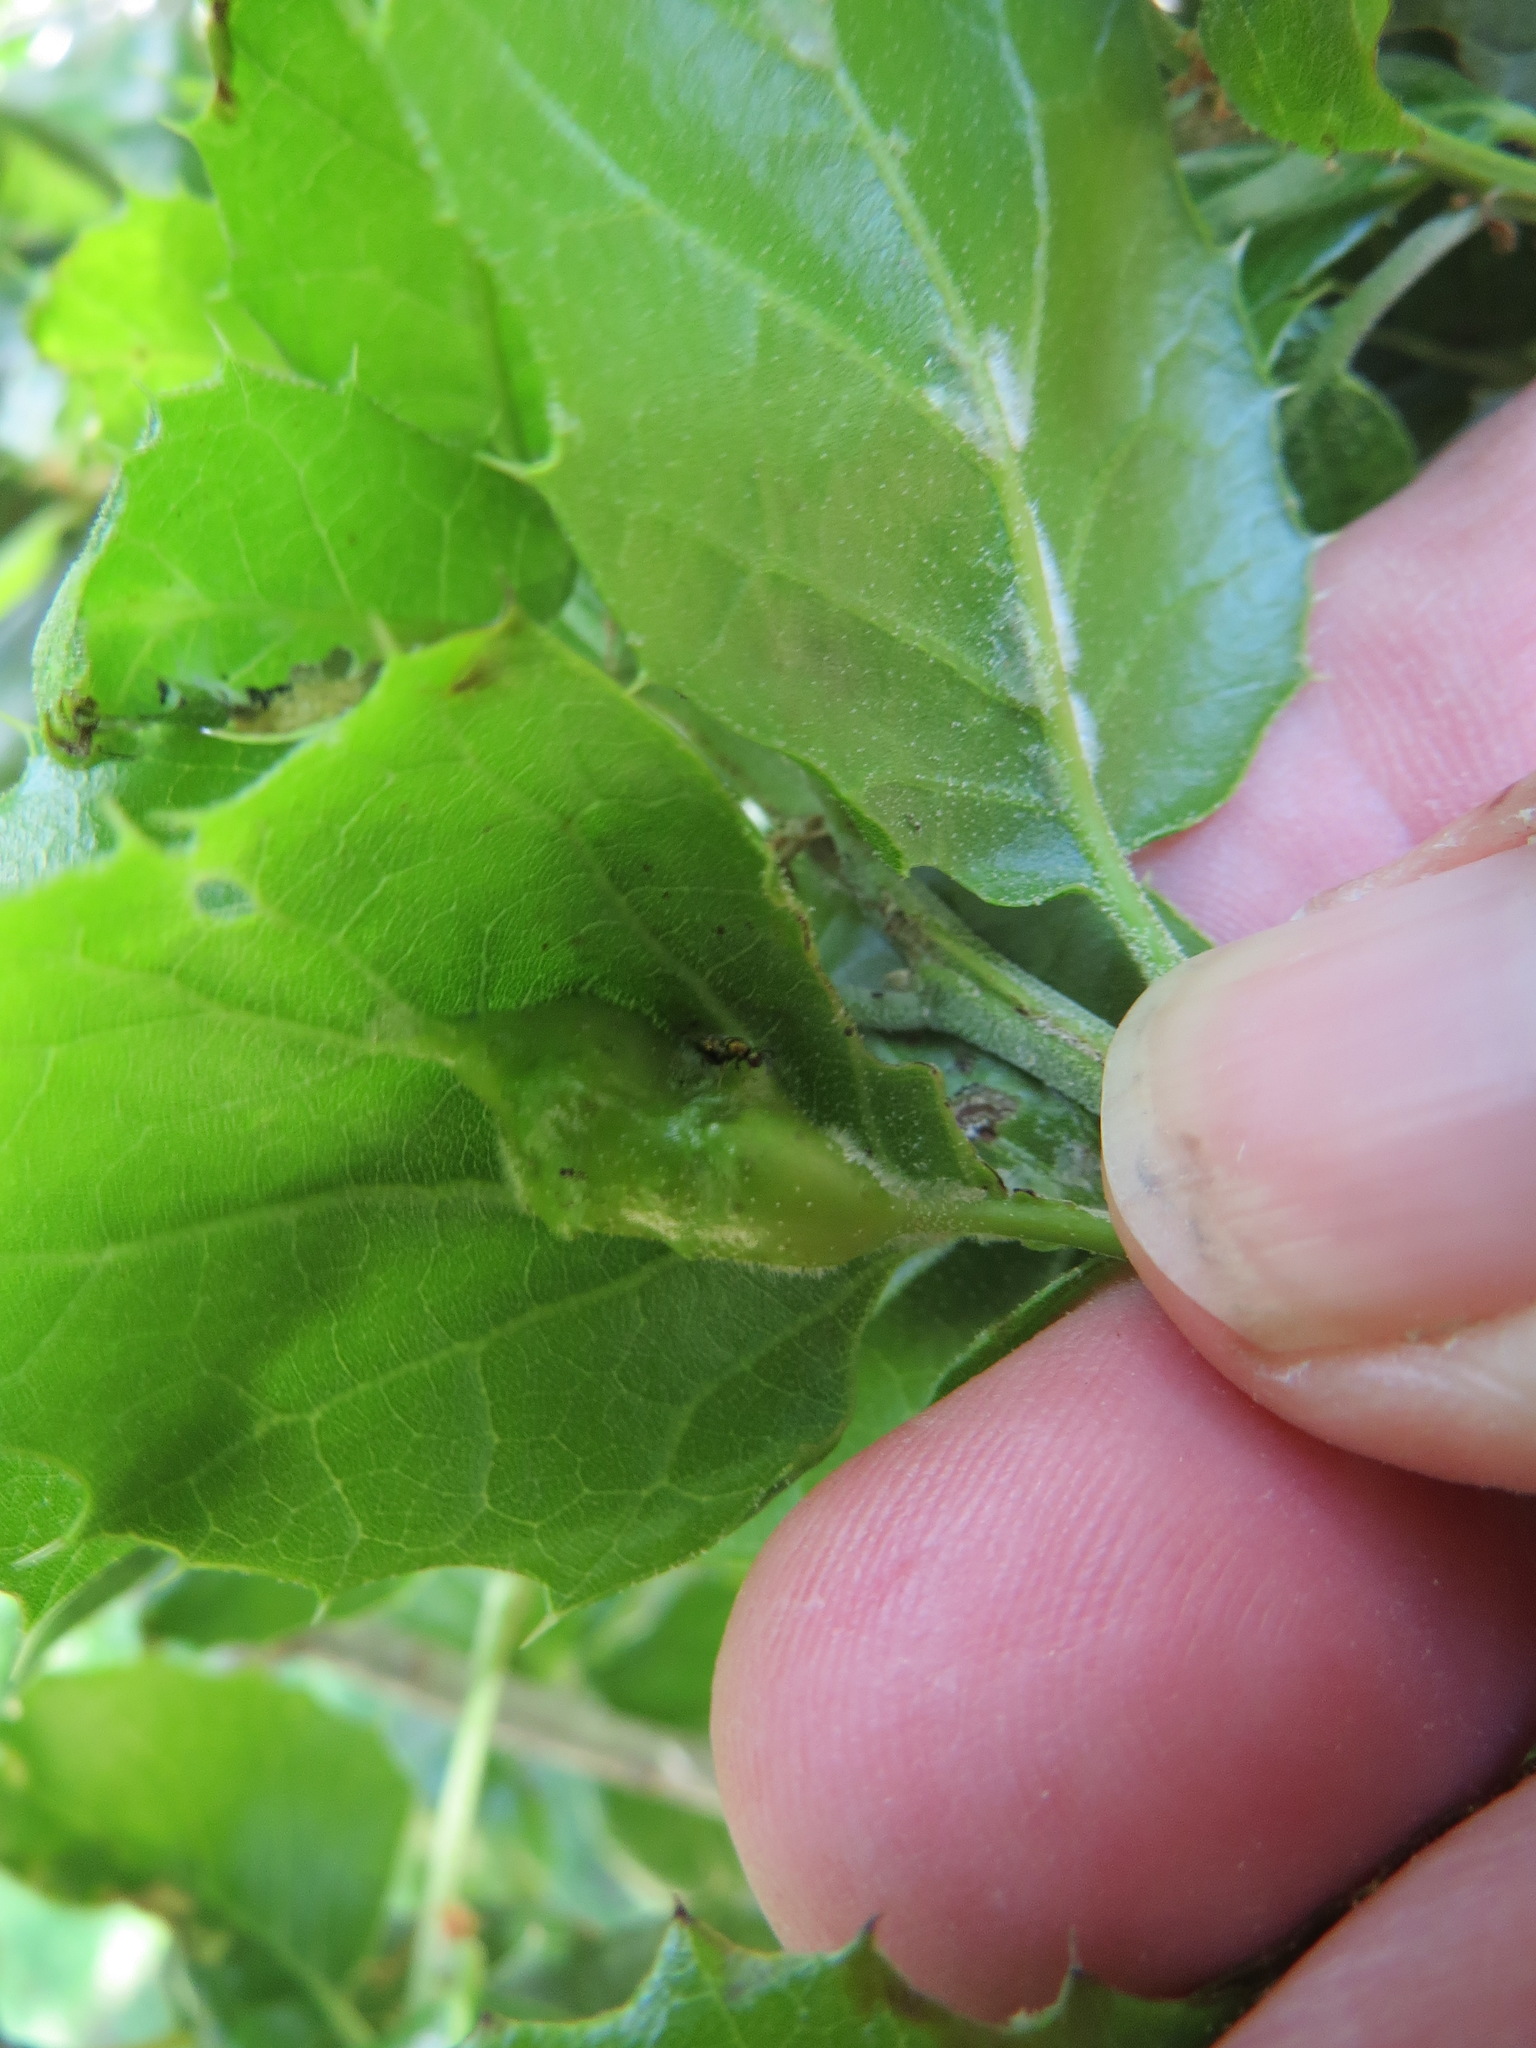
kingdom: Animalia
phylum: Arthropoda
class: Insecta
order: Hymenoptera
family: Cynipidae
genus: Melikaiella
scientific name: Melikaiella
